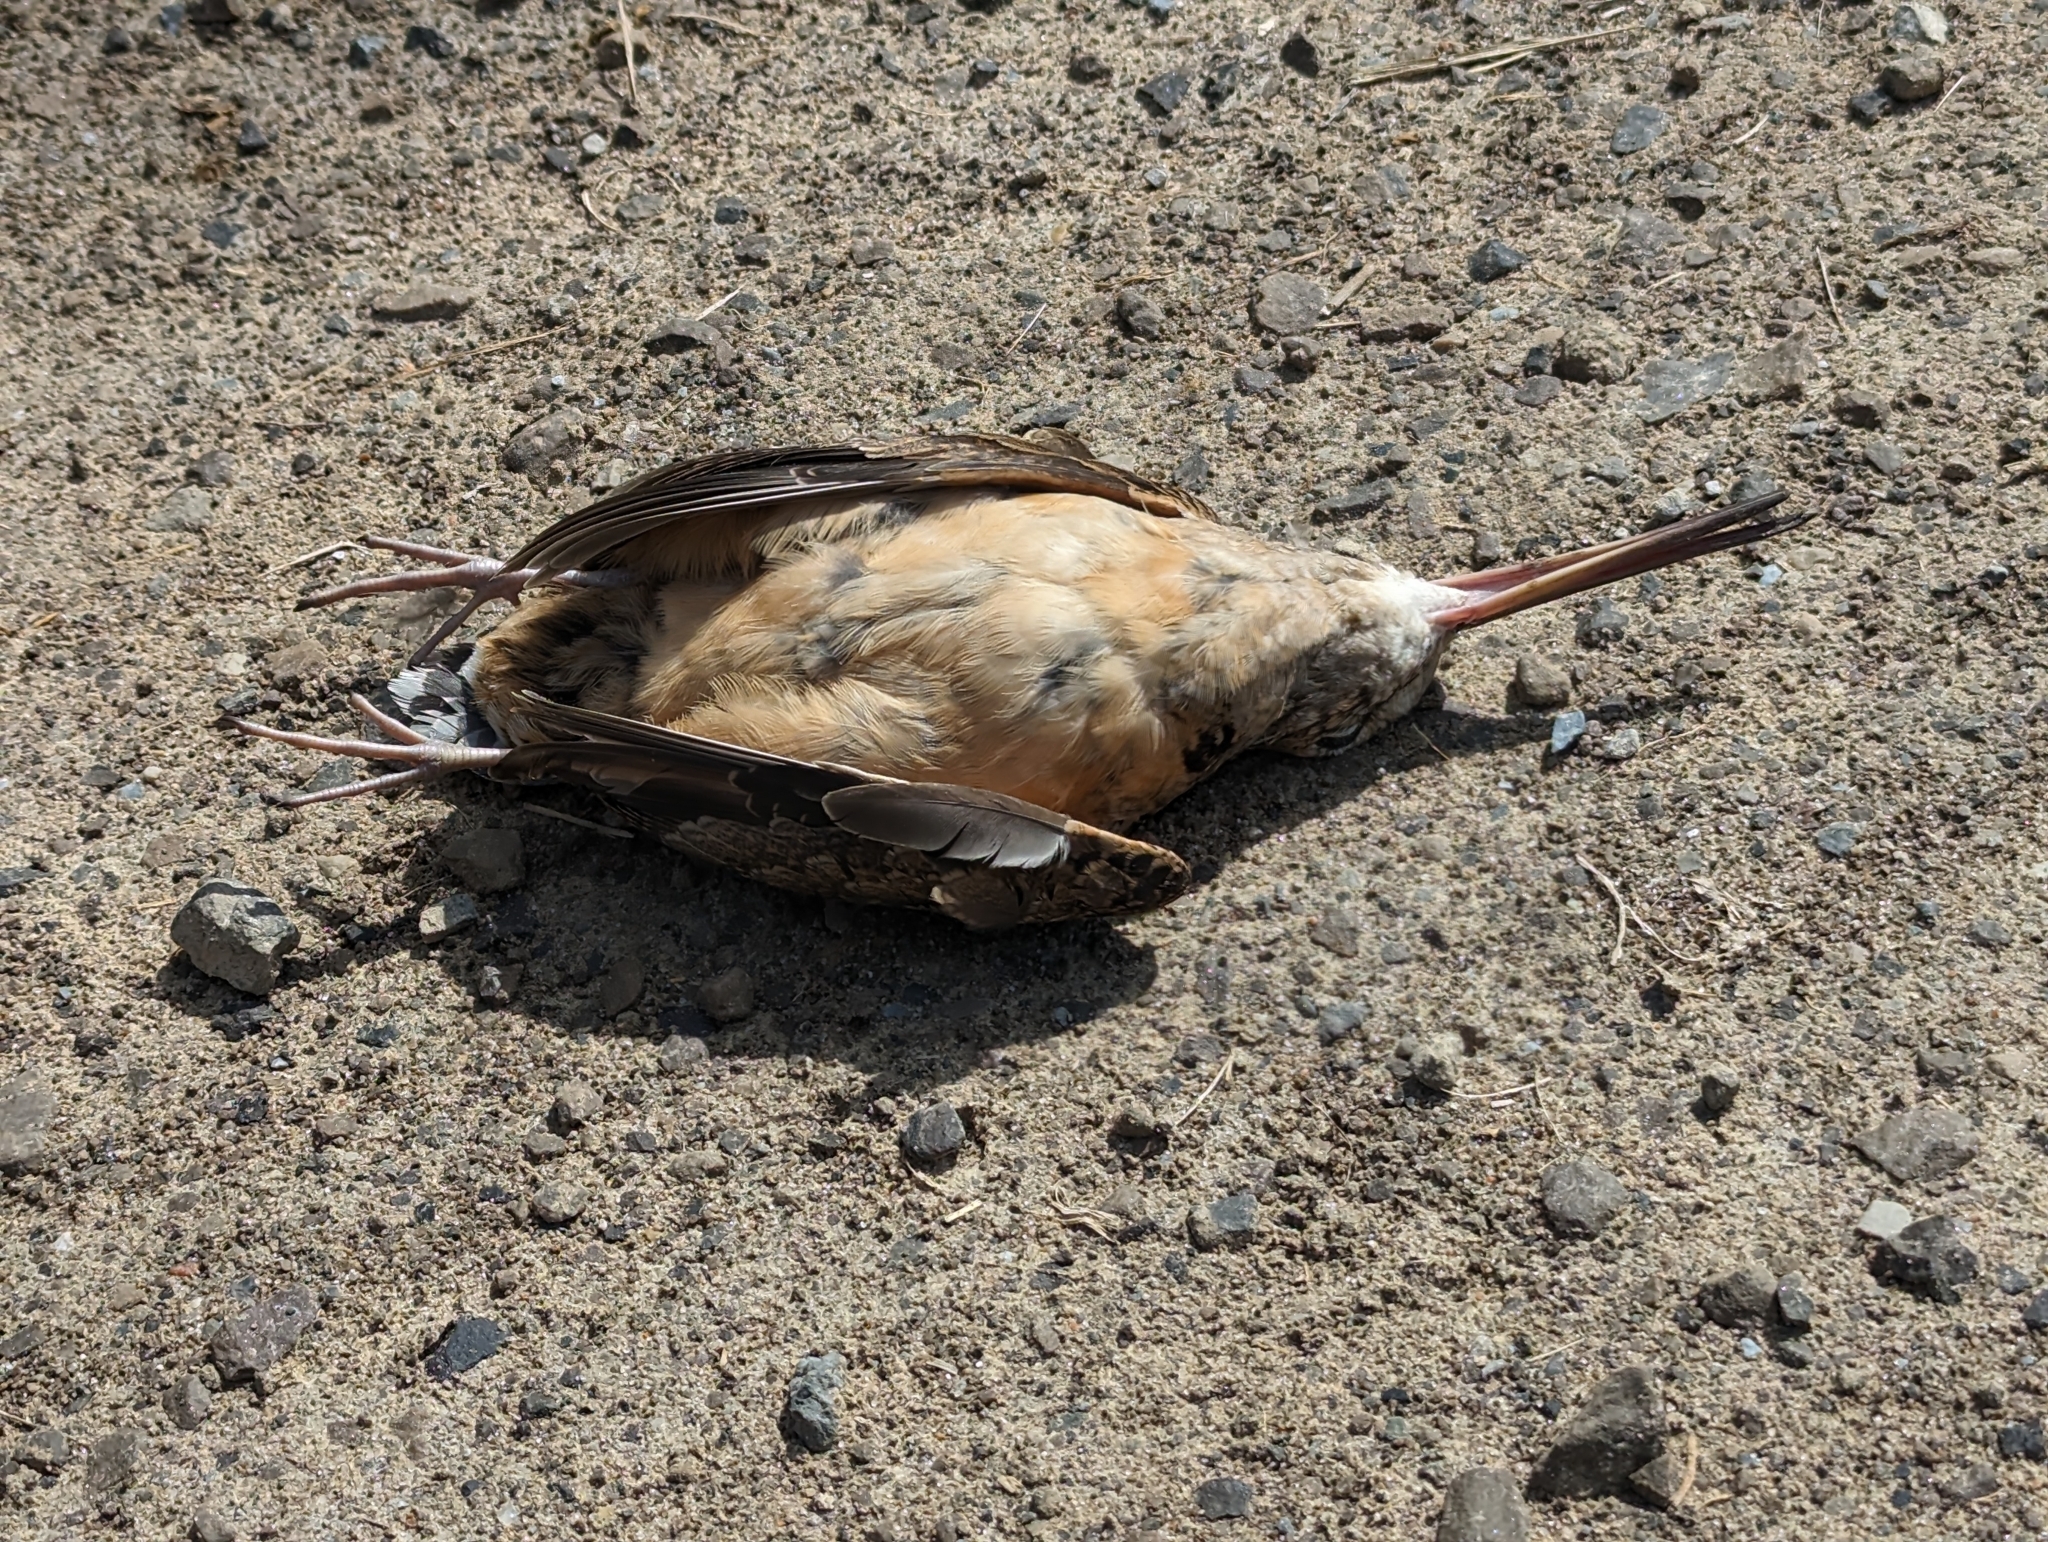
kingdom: Animalia
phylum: Chordata
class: Aves
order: Charadriiformes
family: Scolopacidae
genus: Scolopax
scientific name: Scolopax minor
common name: American woodcock
